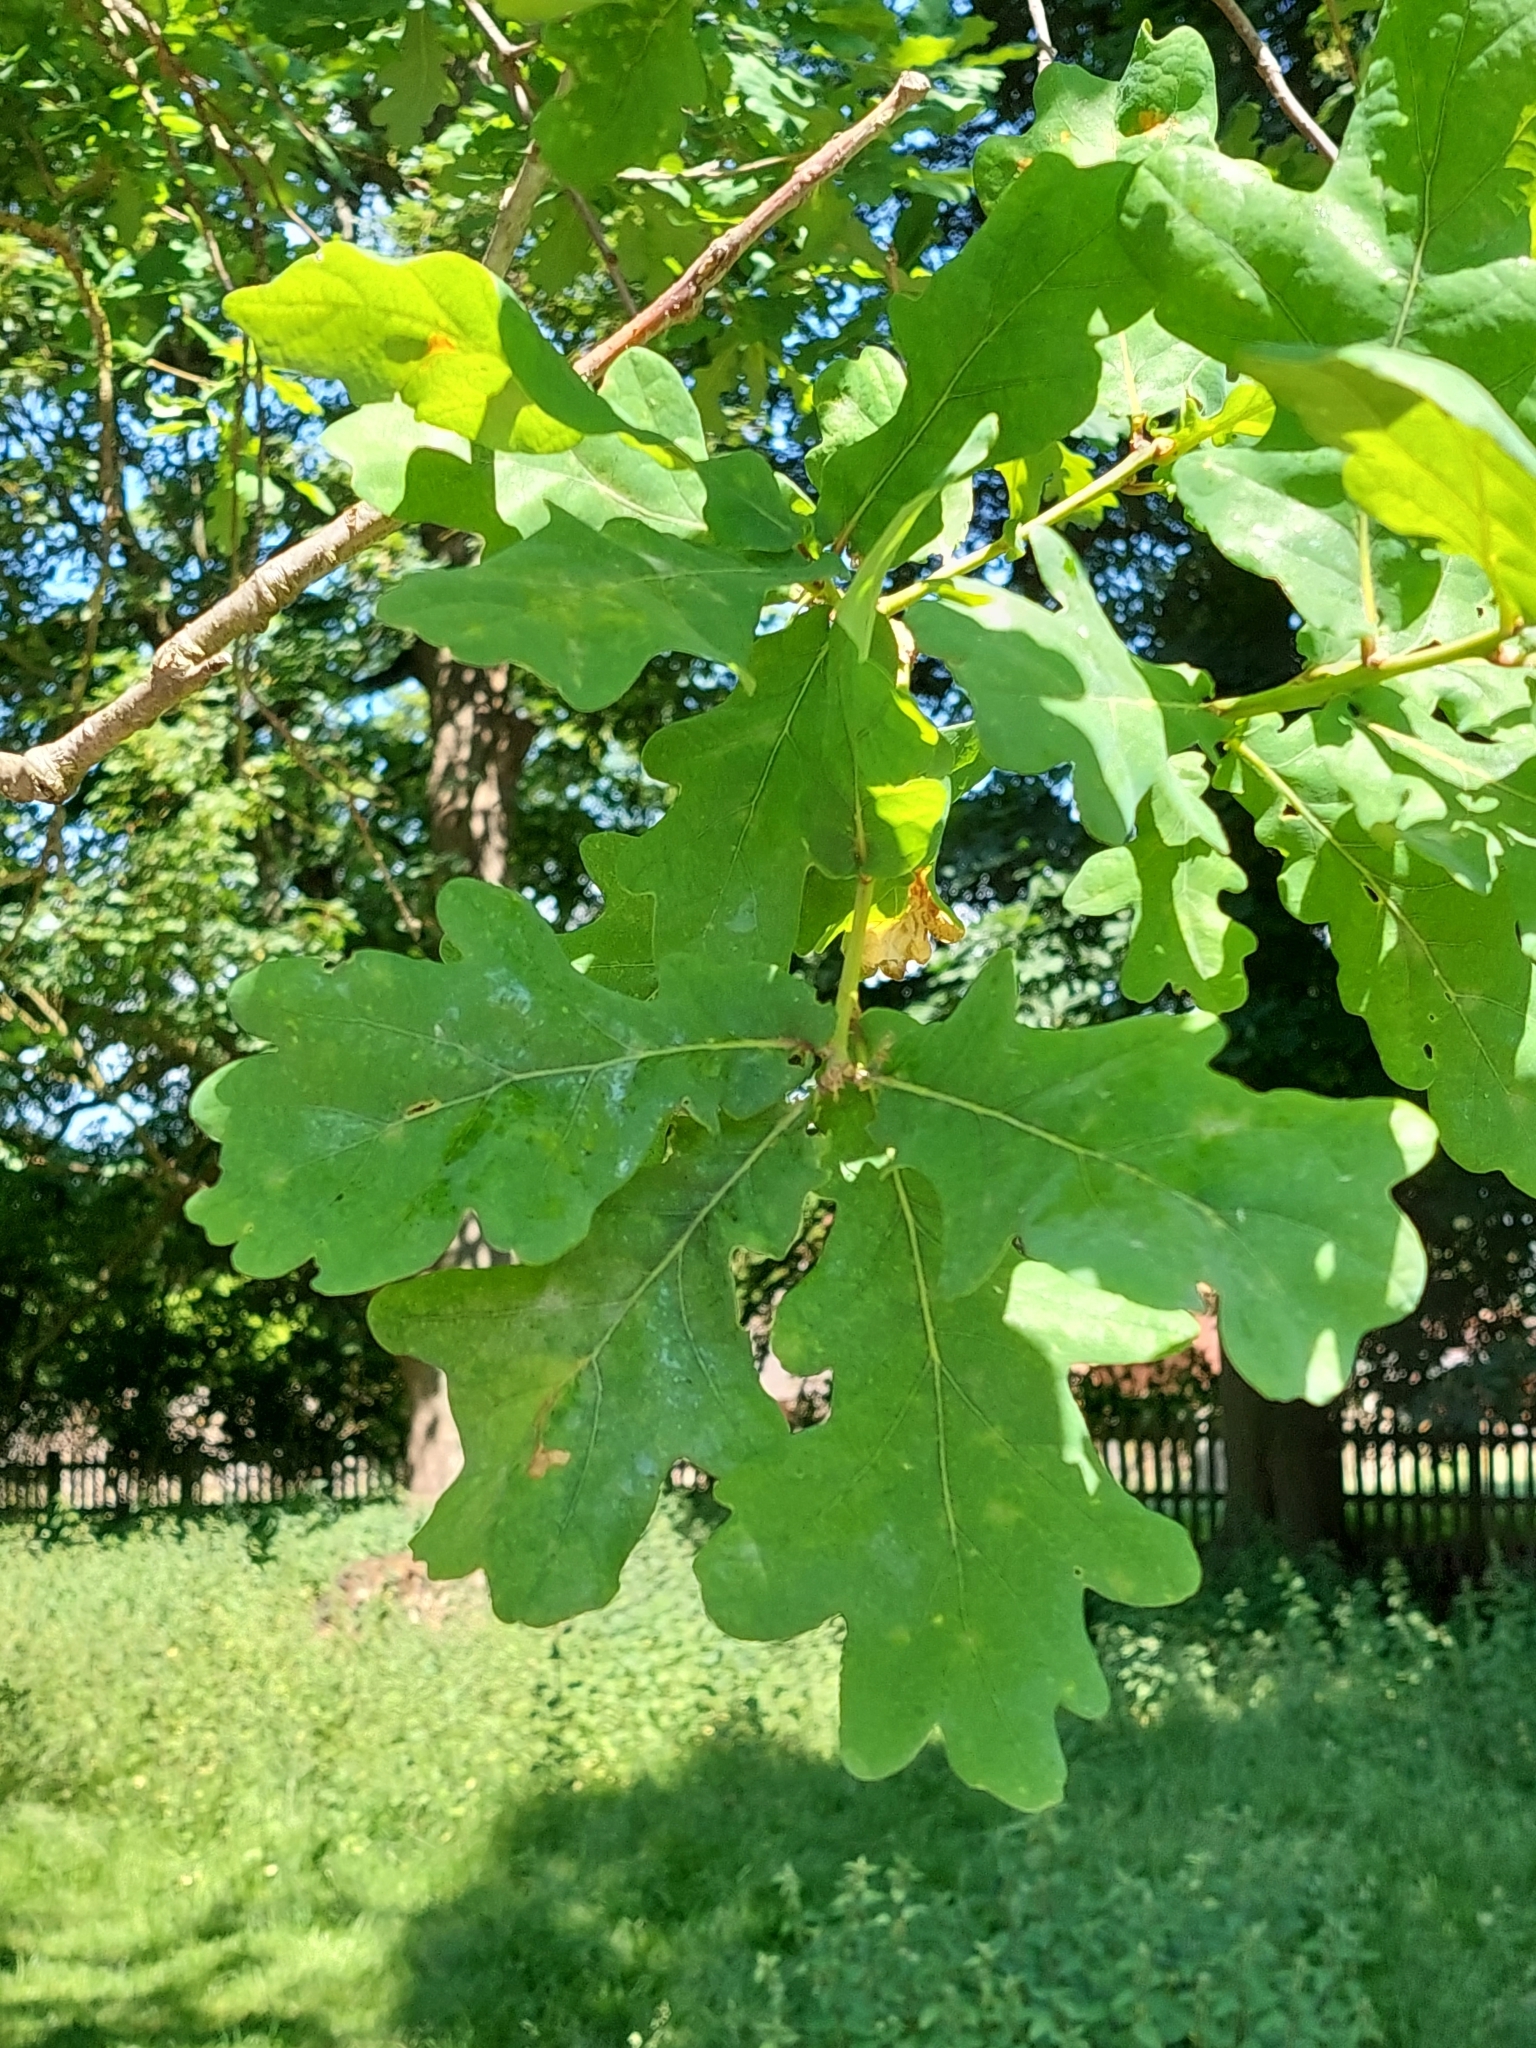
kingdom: Plantae
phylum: Tracheophyta
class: Magnoliopsida
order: Fagales
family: Fagaceae
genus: Quercus
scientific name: Quercus robur
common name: Pedunculate oak
